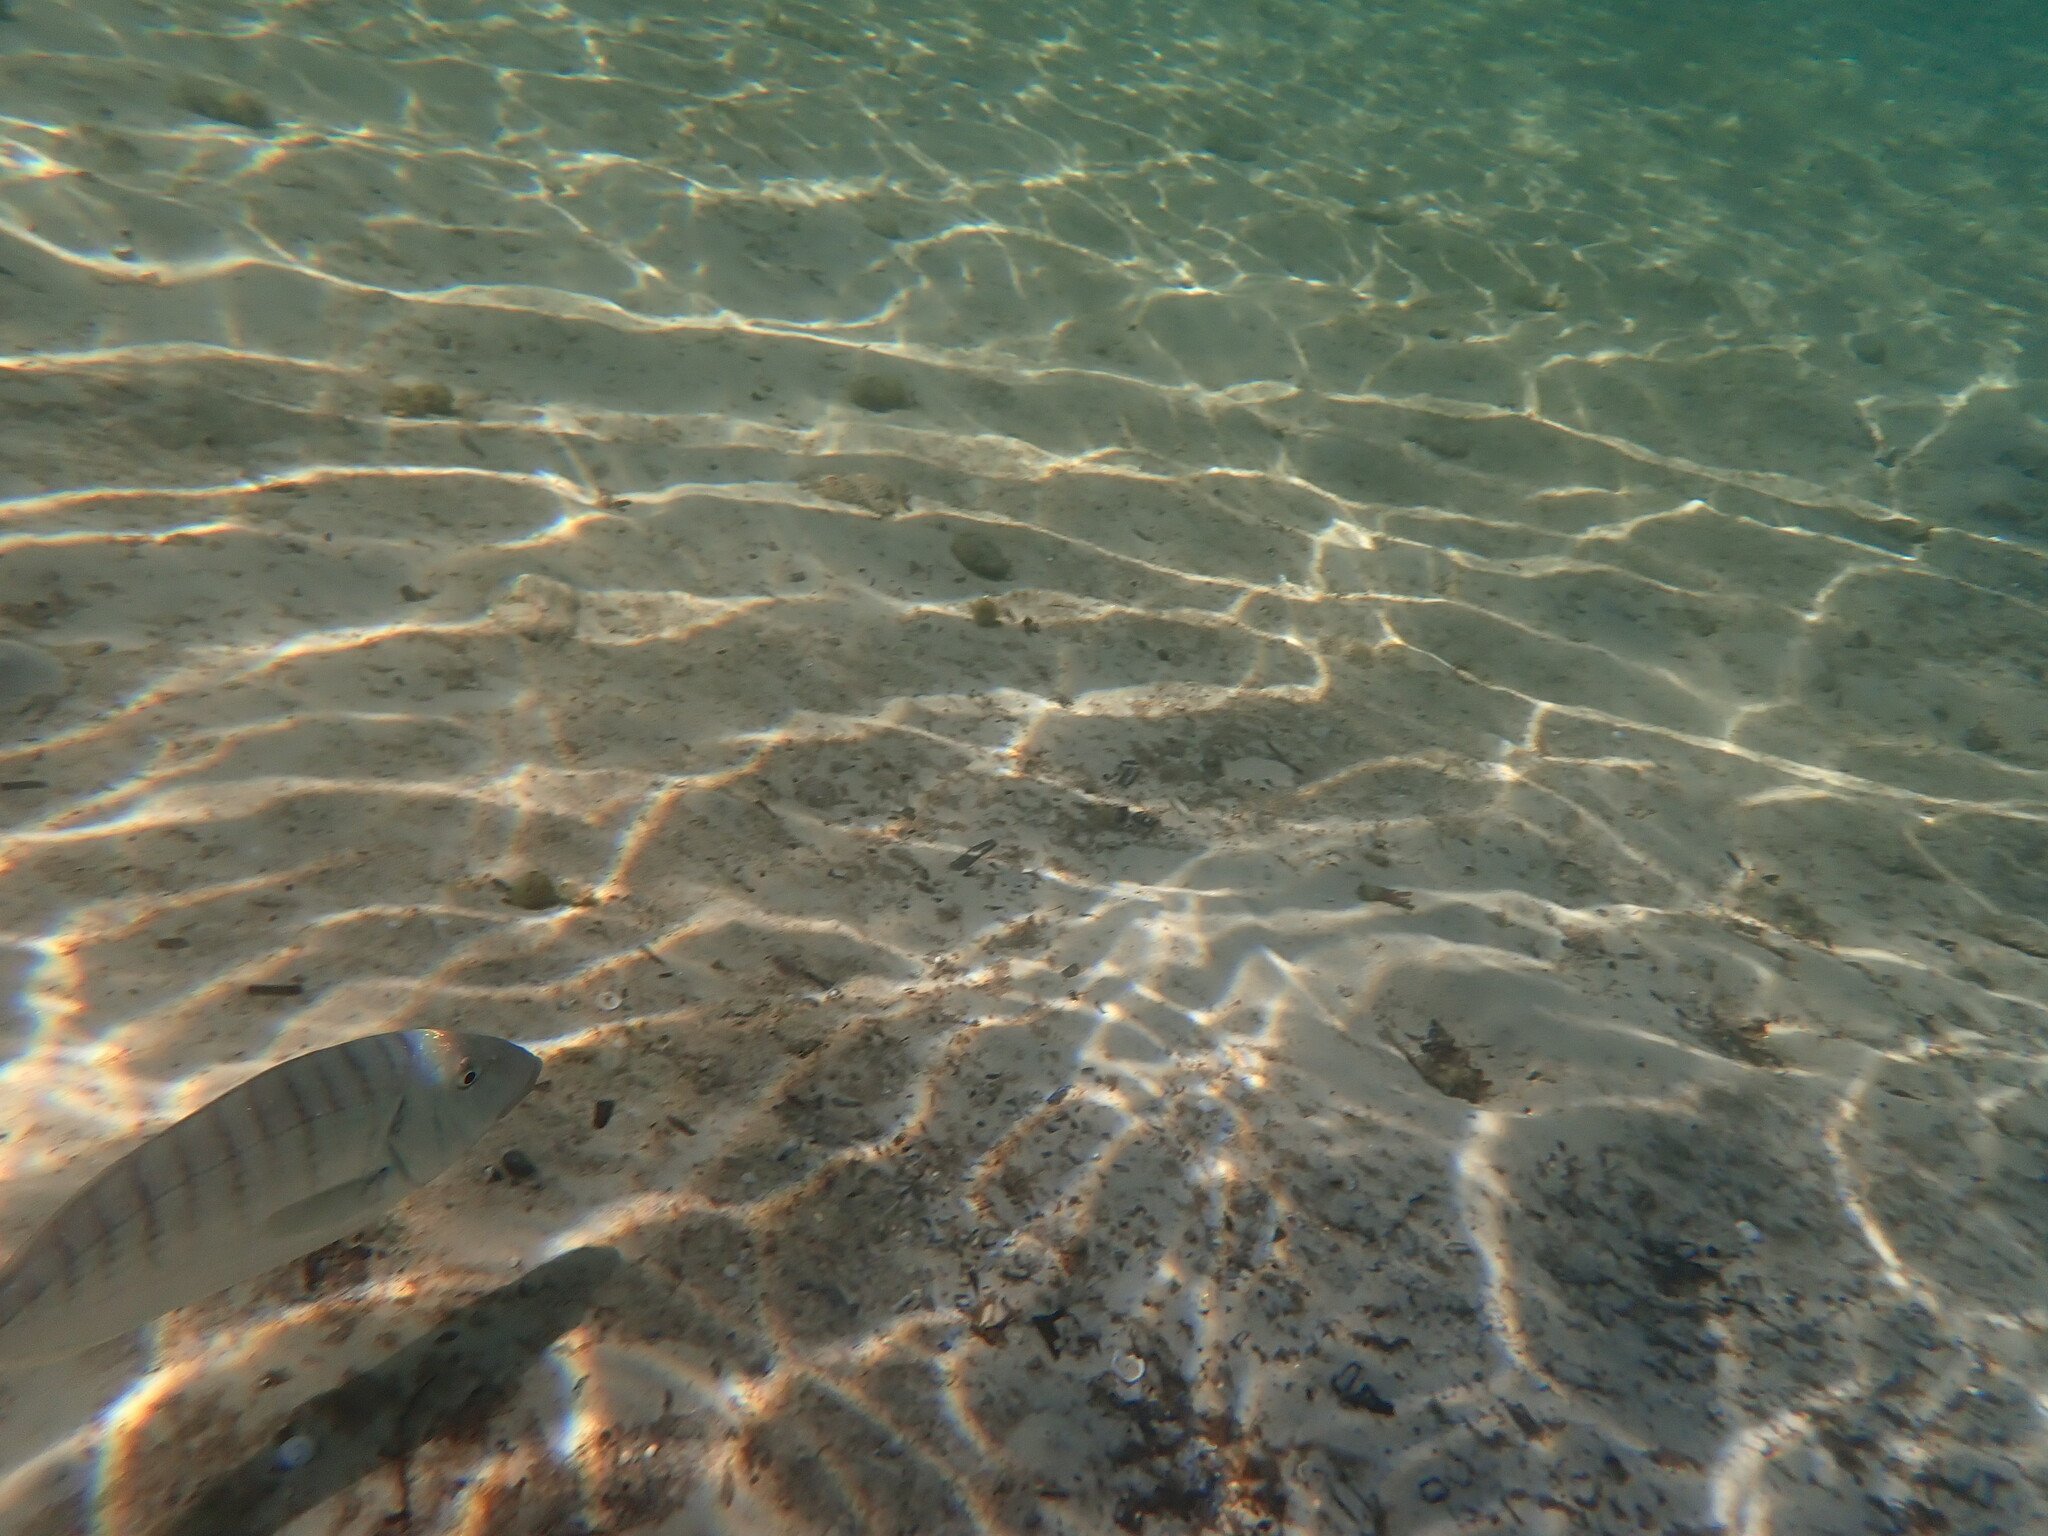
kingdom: Animalia
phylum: Chordata
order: Perciformes
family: Sparidae
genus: Lithognathus
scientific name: Lithognathus mormyrus
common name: Sand steenbras
